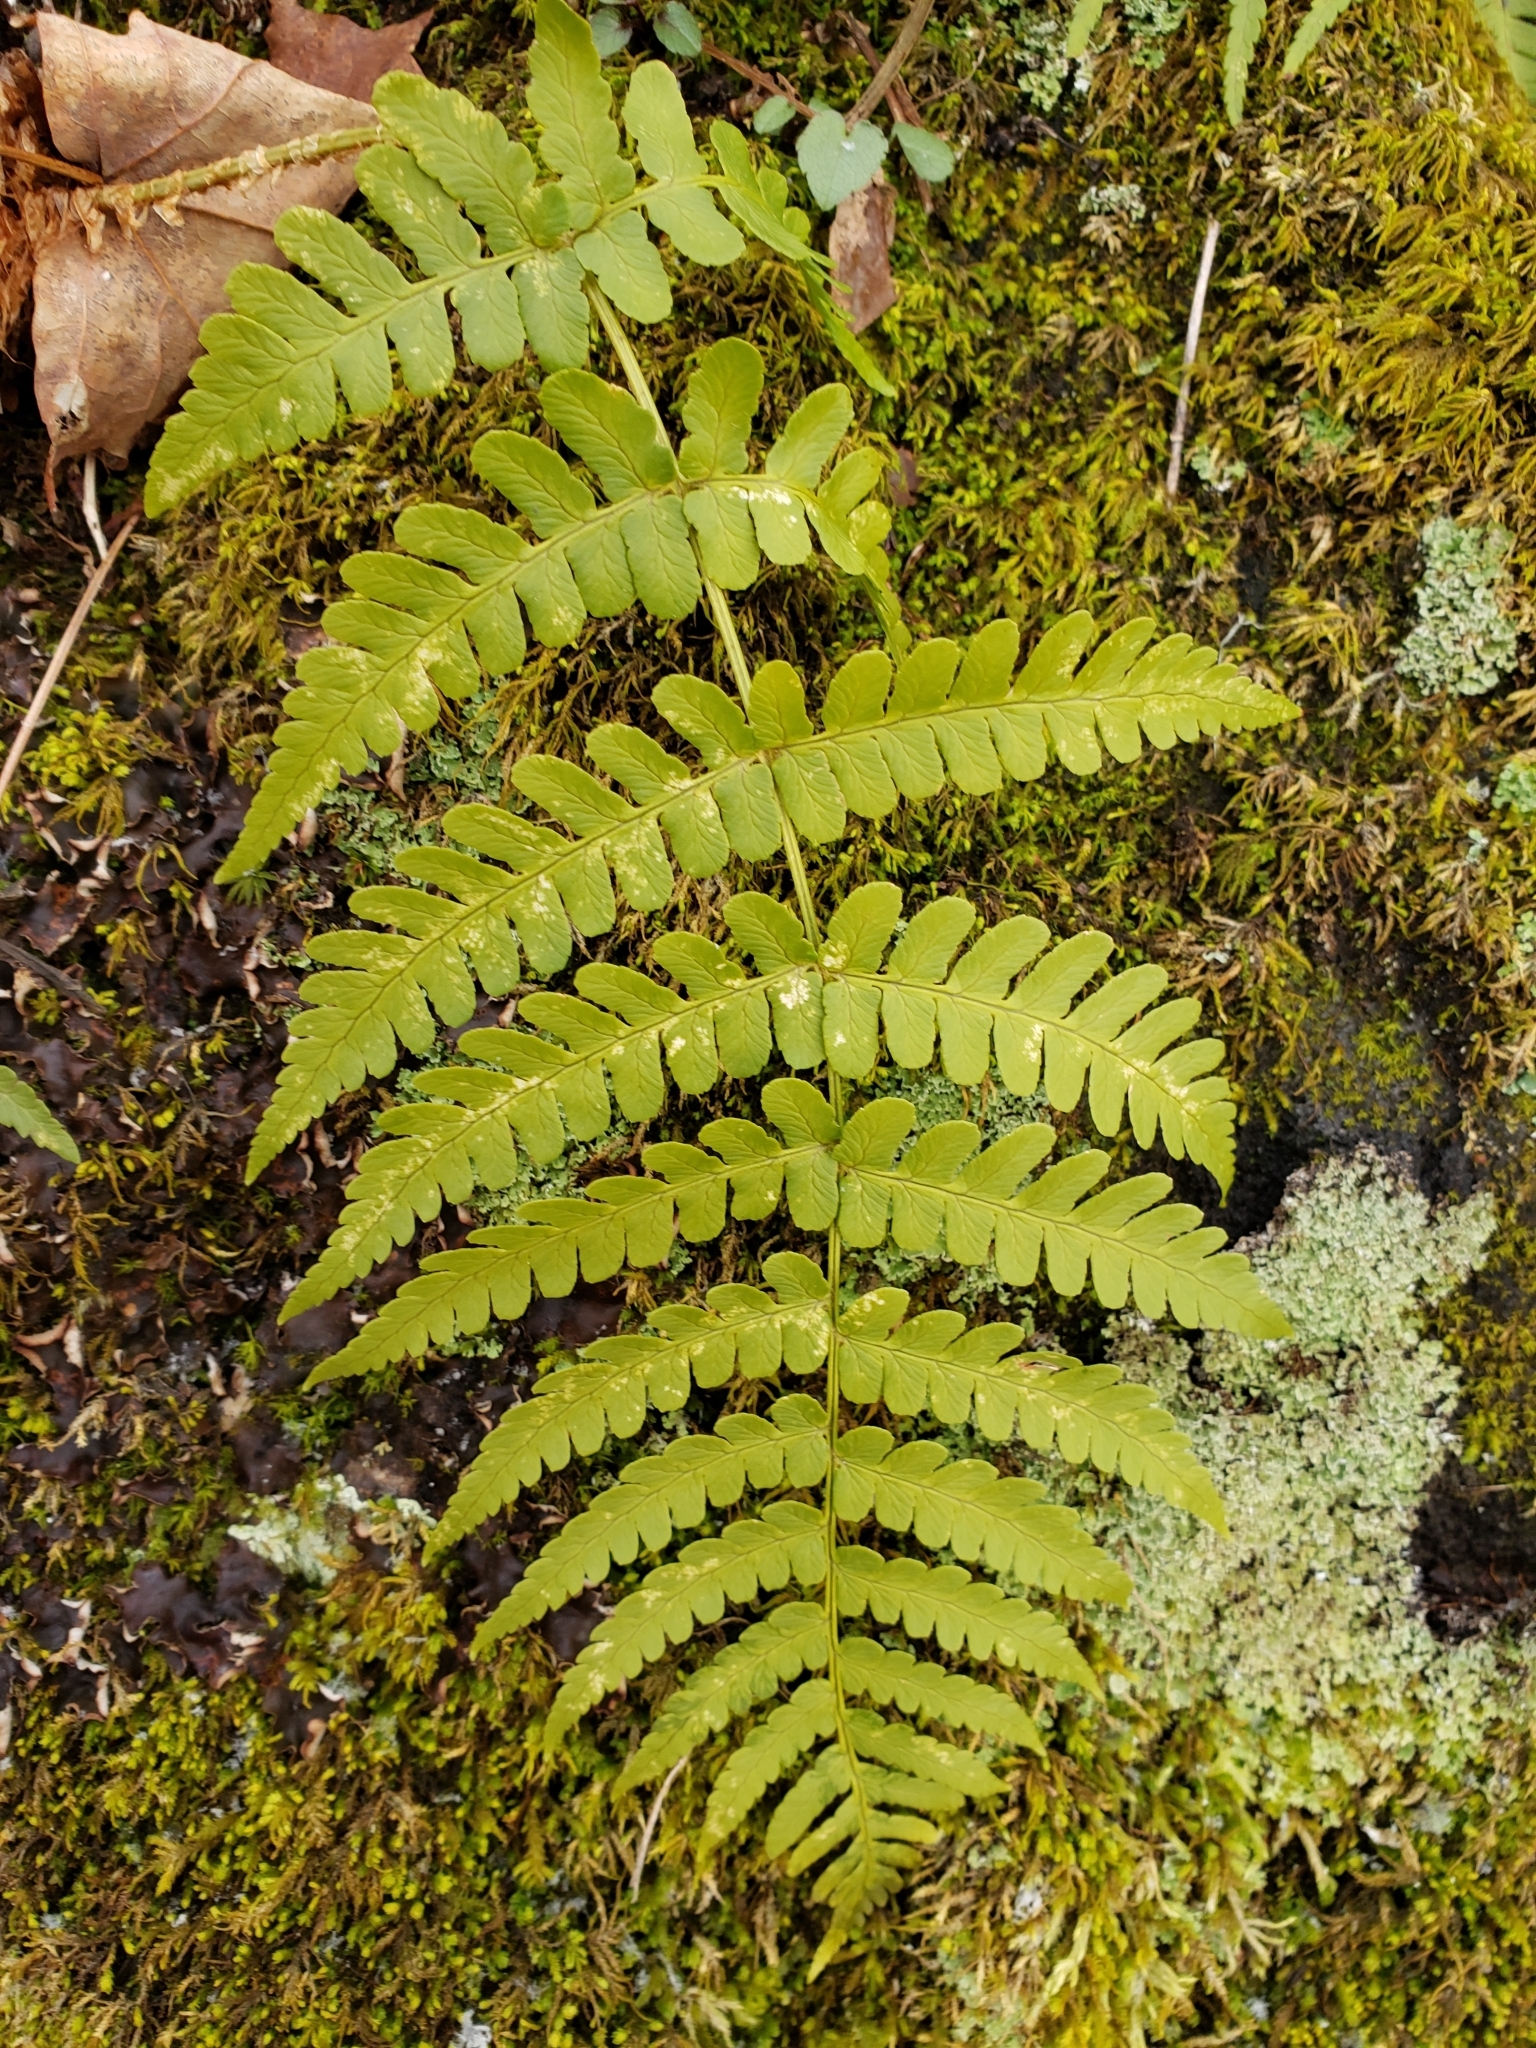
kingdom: Plantae
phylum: Tracheophyta
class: Polypodiopsida
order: Polypodiales
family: Dryopteridaceae
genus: Dryopteris
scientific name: Dryopteris marginalis
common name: Marginal wood fern
